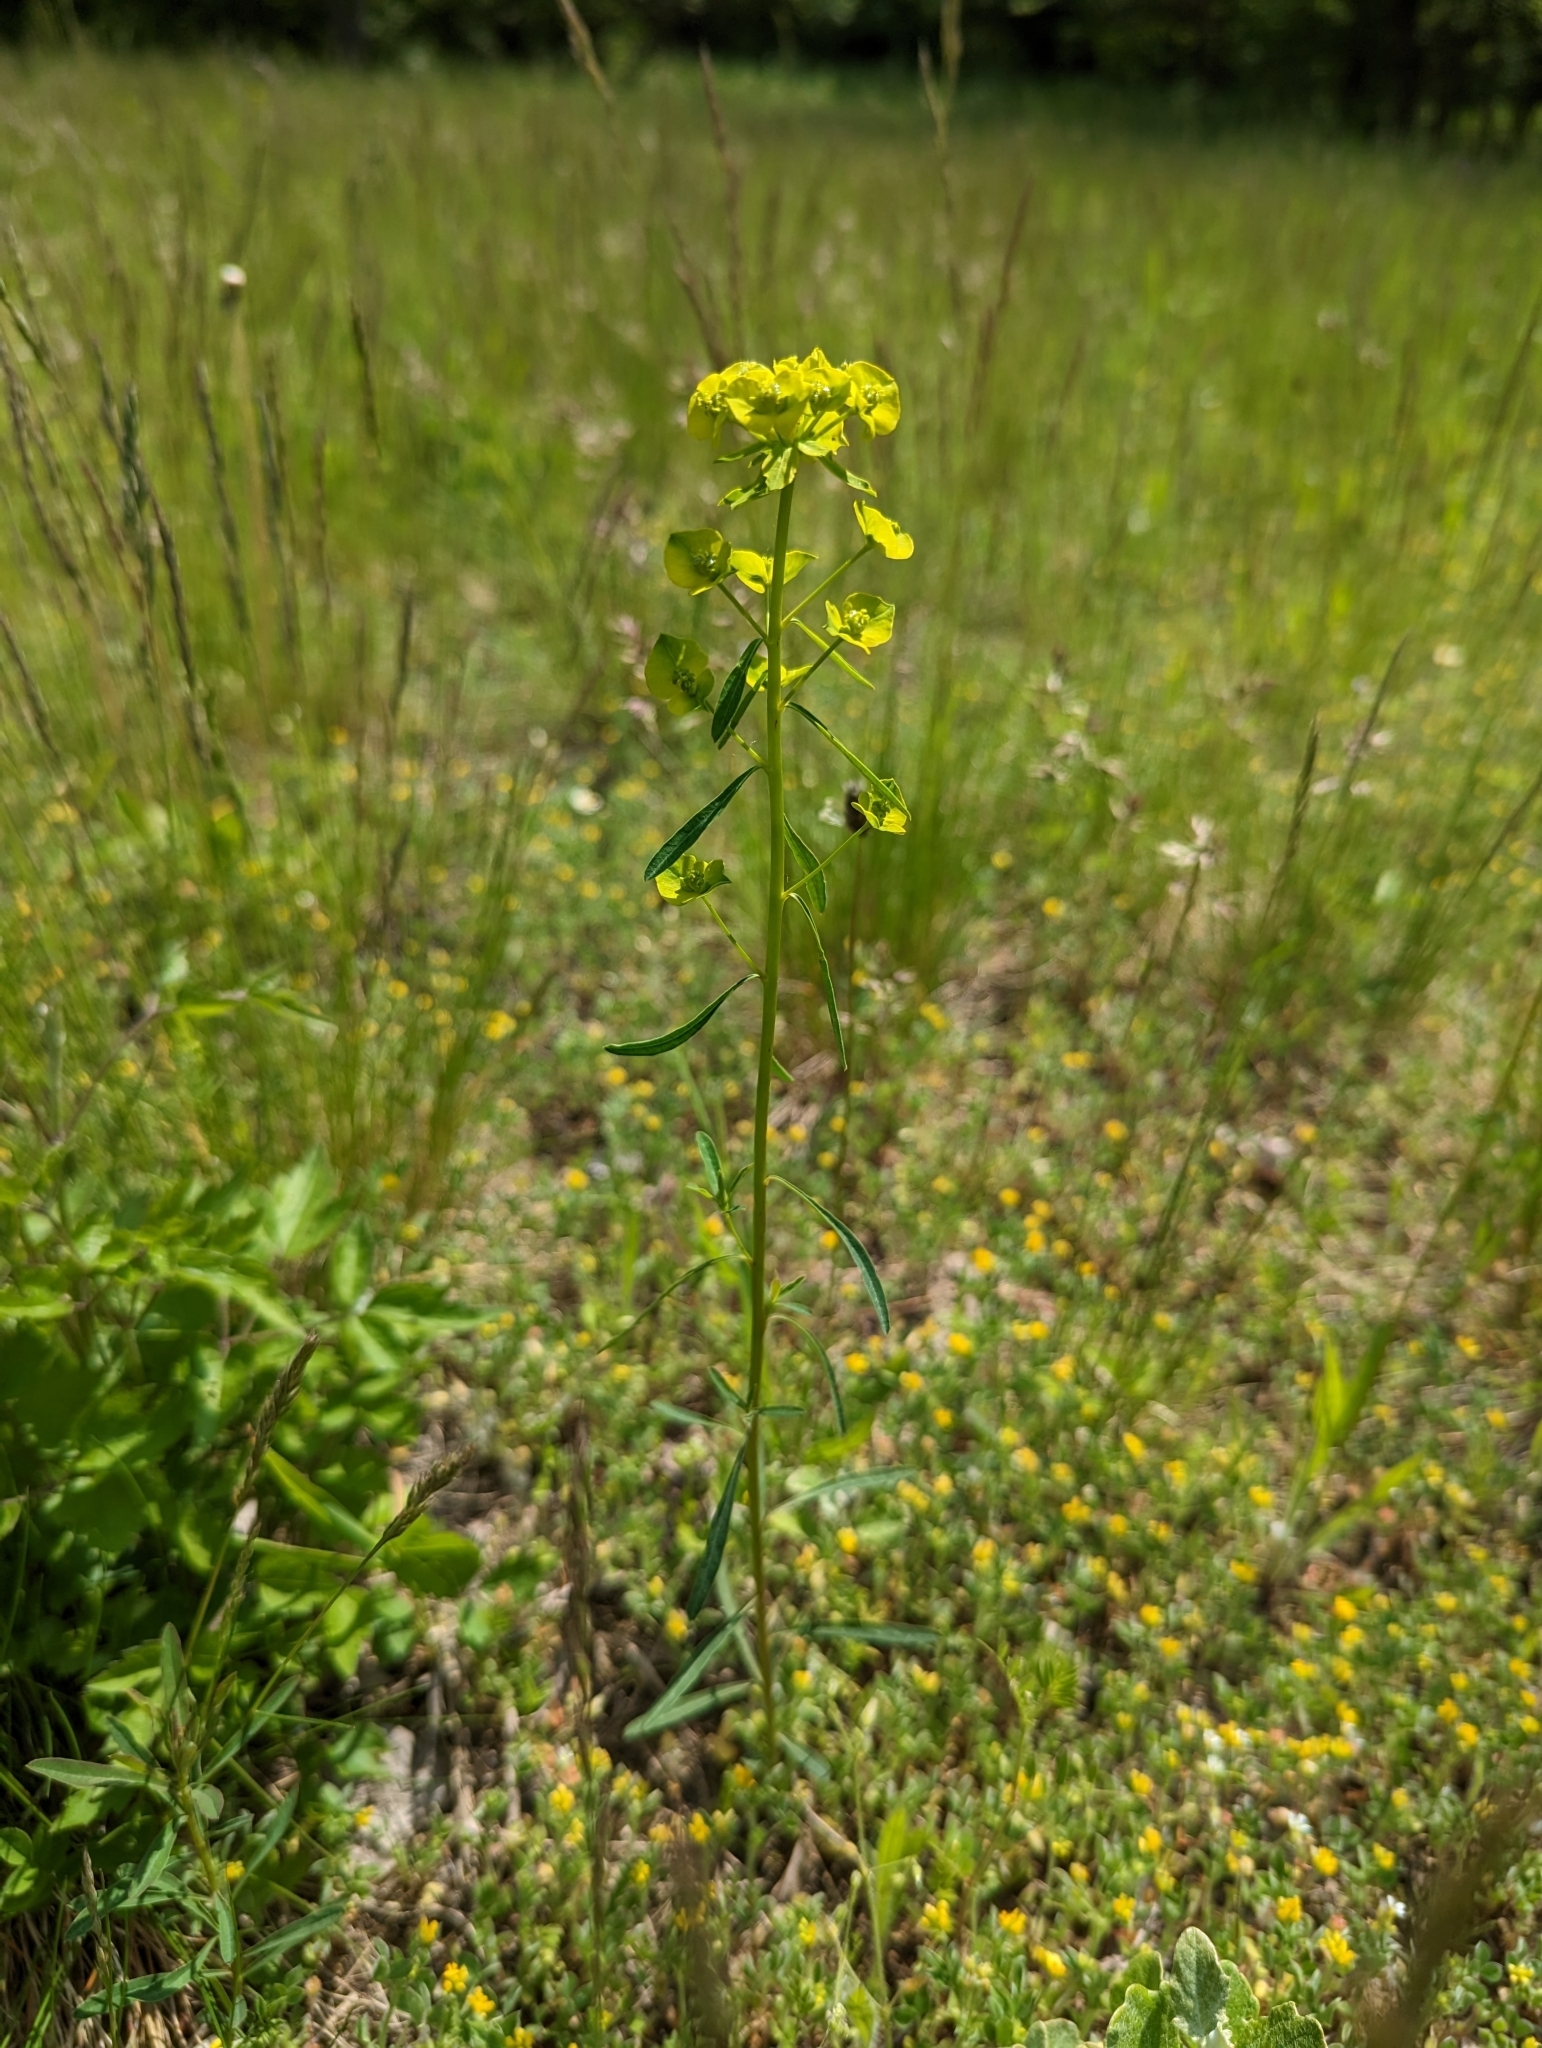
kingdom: Plantae
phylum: Tracheophyta
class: Magnoliopsida
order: Malpighiales
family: Euphorbiaceae
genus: Euphorbia
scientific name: Euphorbia esula
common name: Leafy spurge
